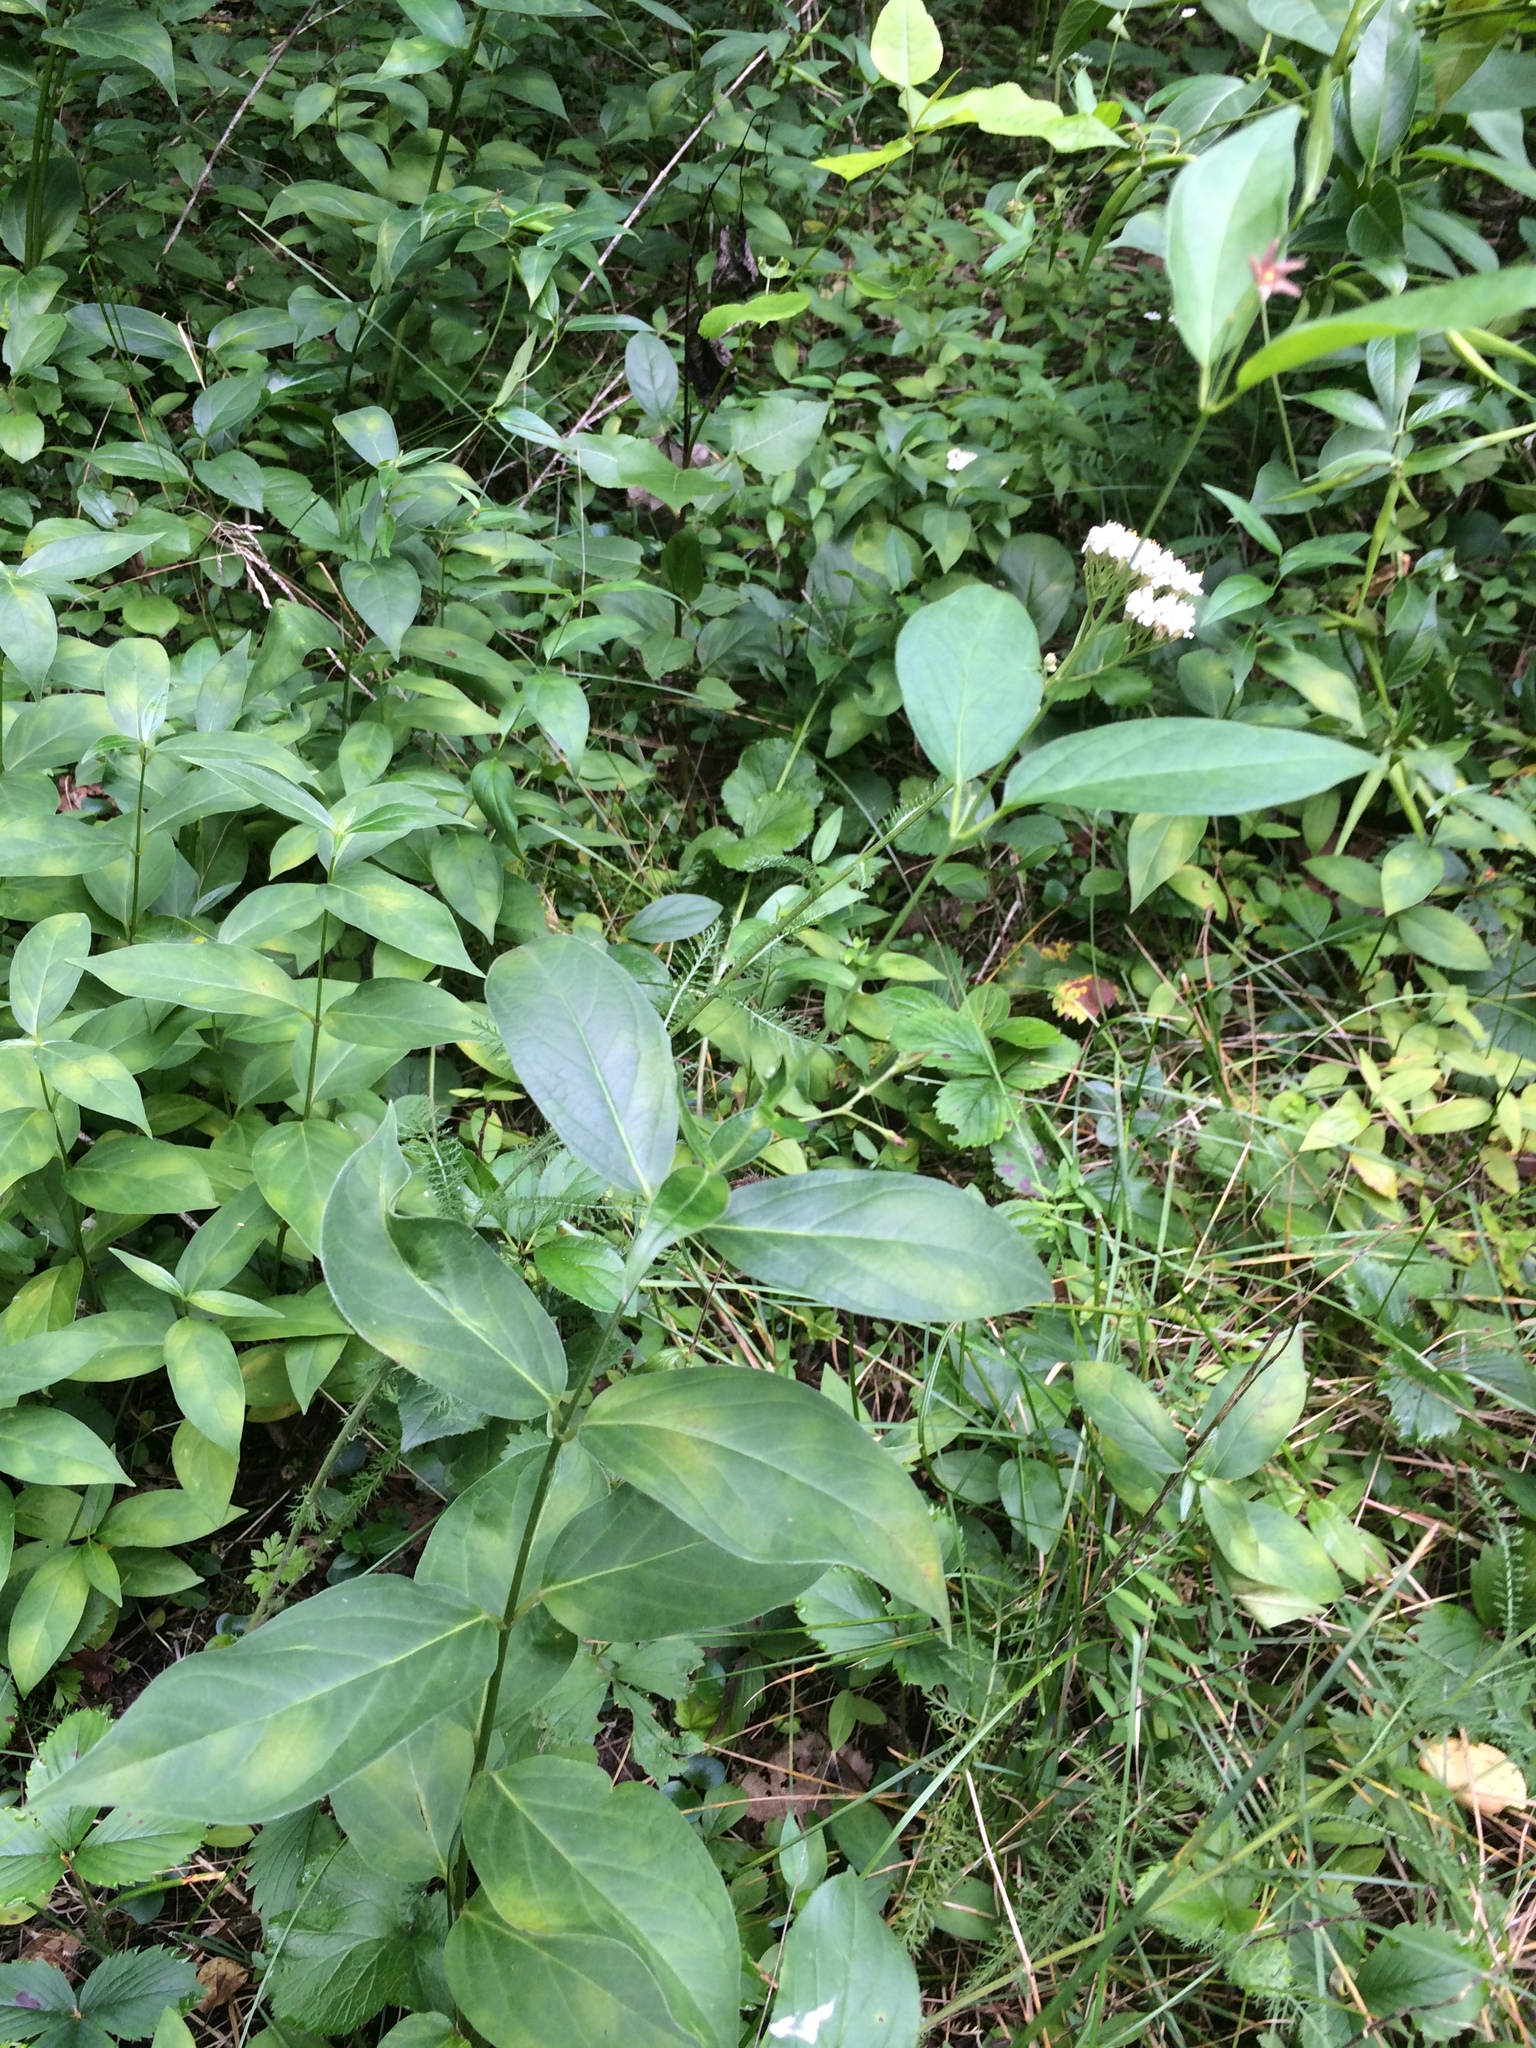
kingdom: Plantae
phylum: Tracheophyta
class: Magnoliopsida
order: Gentianales
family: Apocynaceae
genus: Vincetoxicum
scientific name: Vincetoxicum rossicum
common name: Dog-strangling vine
